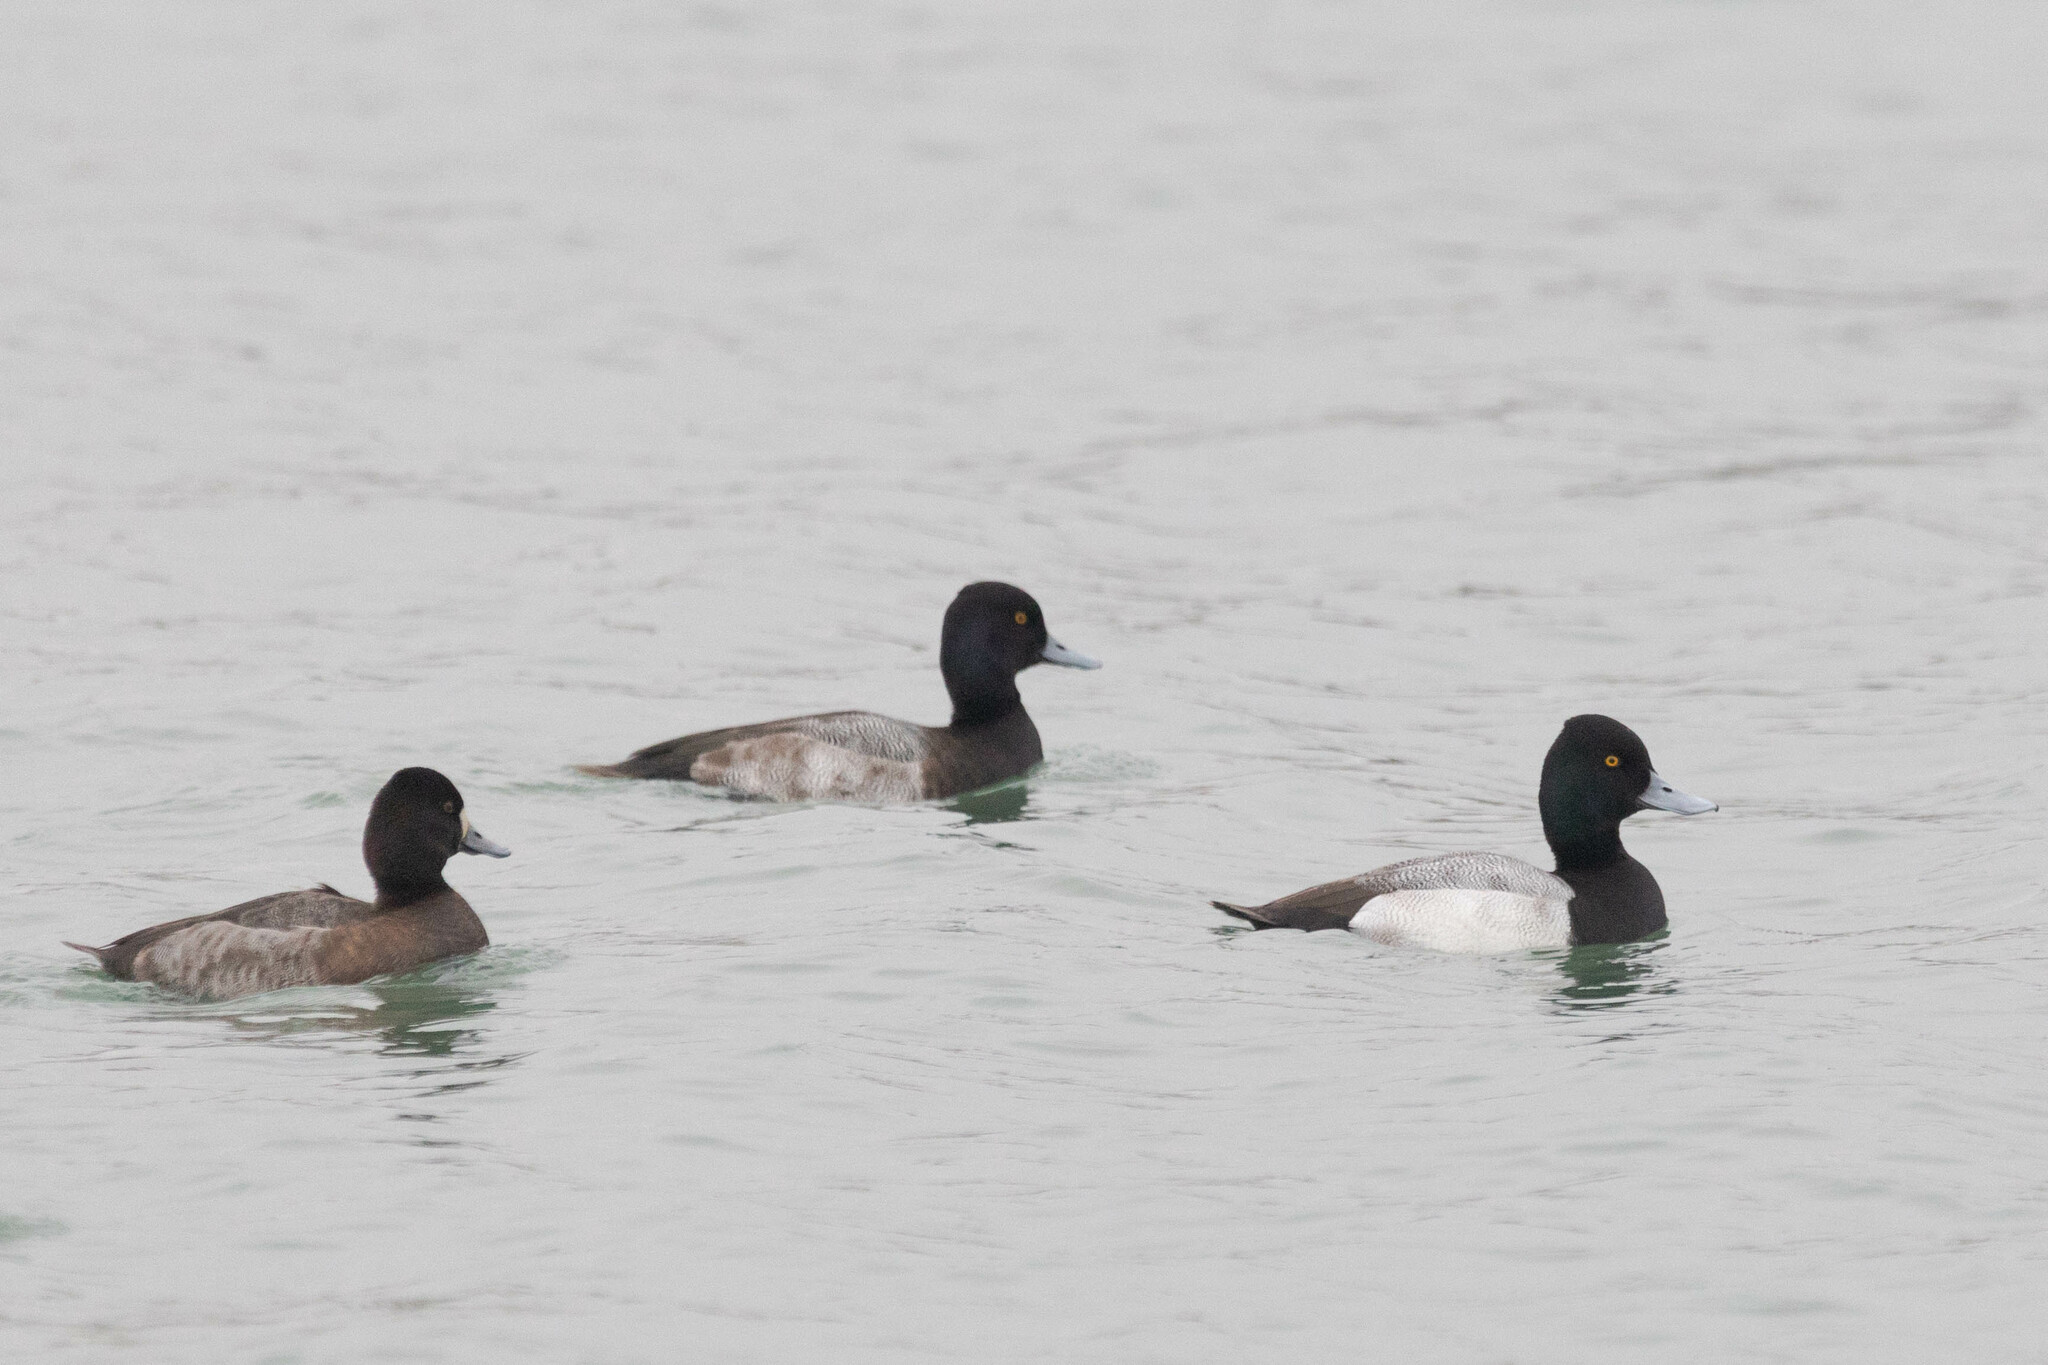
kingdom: Animalia
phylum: Chordata
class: Aves
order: Anseriformes
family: Anatidae
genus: Aythya
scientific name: Aythya affinis
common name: Lesser scaup
